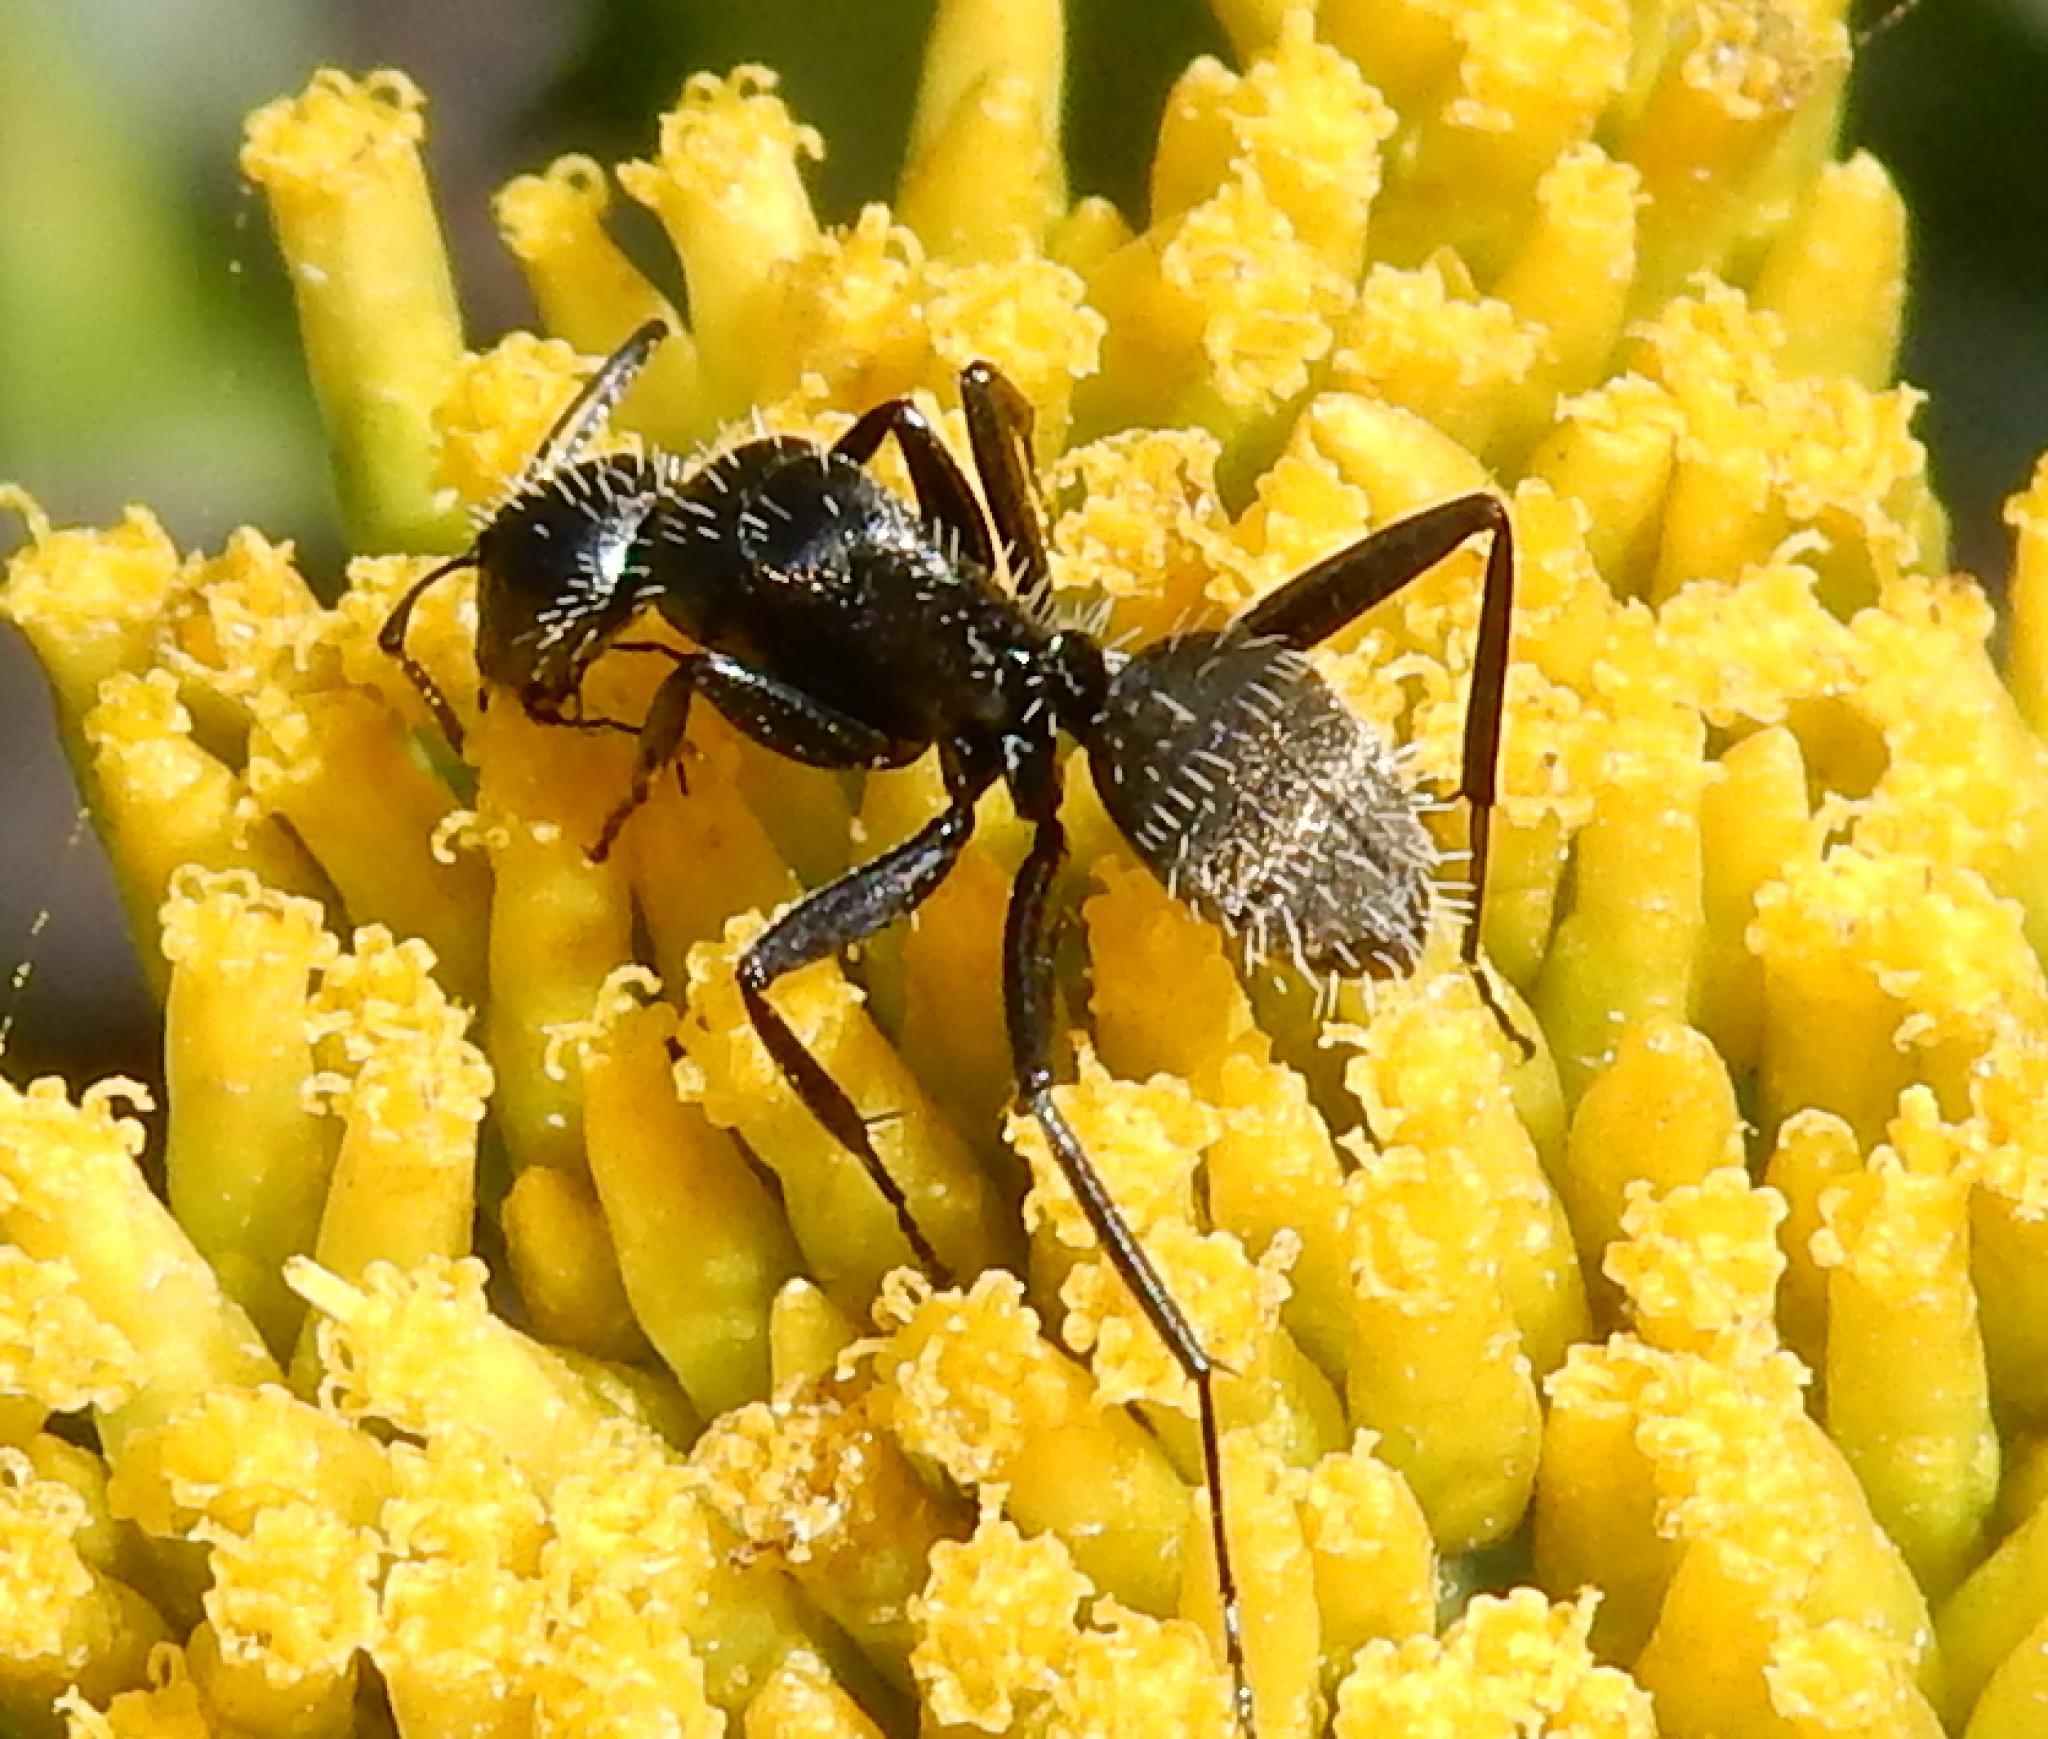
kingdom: Animalia
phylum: Arthropoda
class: Insecta
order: Hymenoptera
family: Formicidae
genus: Camponotus
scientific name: Camponotus niveosetosus
